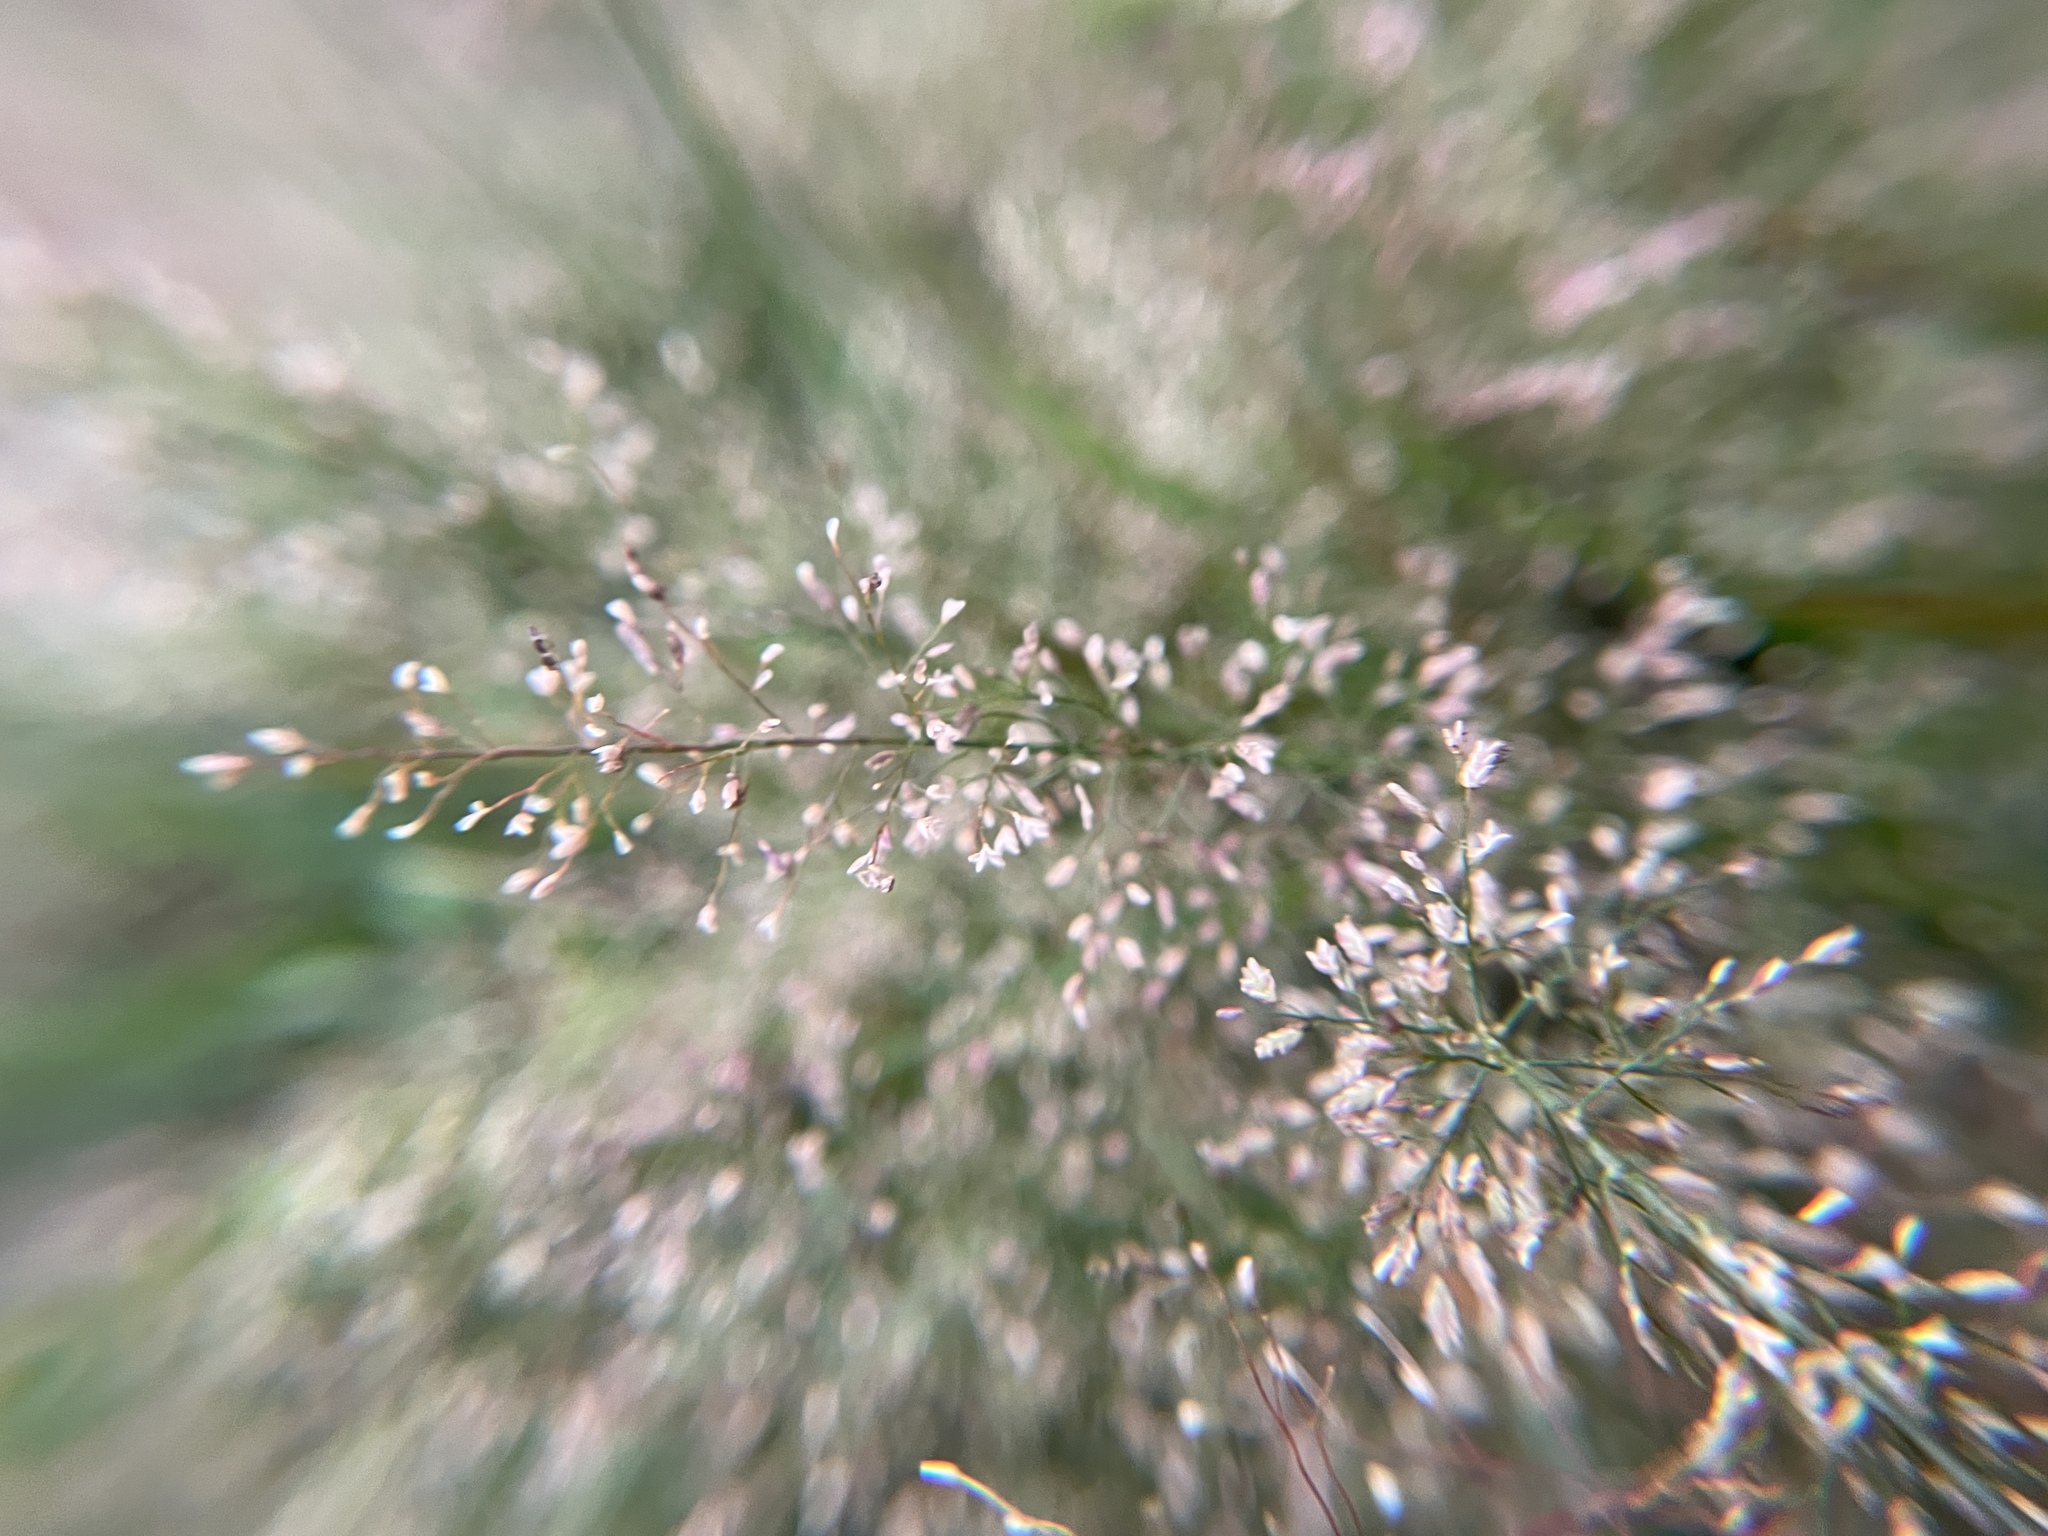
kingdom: Plantae
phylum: Tracheophyta
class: Liliopsida
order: Poales
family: Poaceae
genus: Eragrostis
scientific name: Eragrostis tenella
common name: Japanese lovegrass
